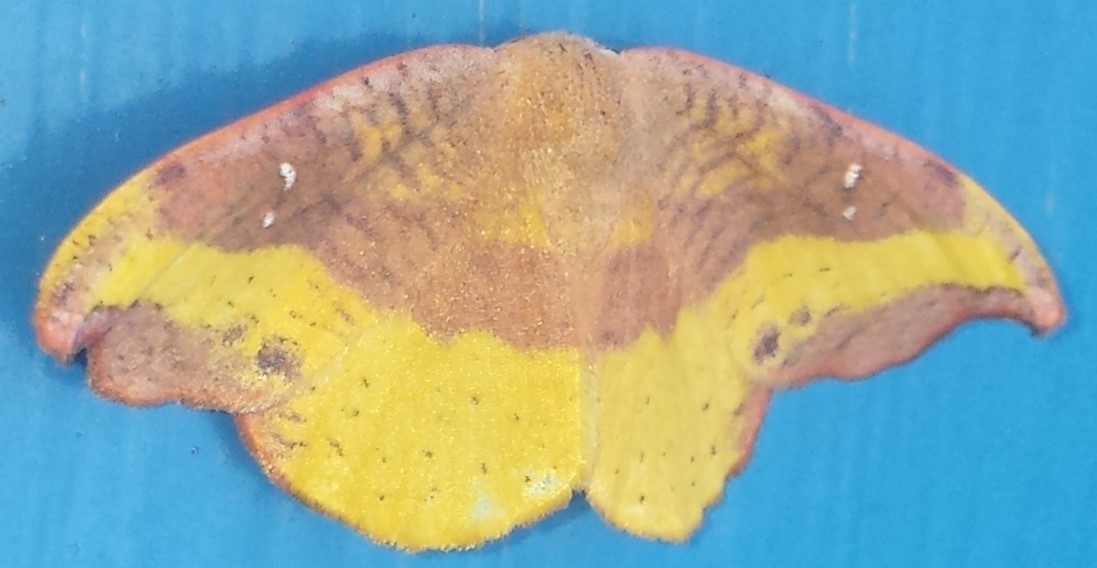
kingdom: Animalia
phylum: Arthropoda
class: Insecta
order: Lepidoptera
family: Drepanidae
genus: Oreta
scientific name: Oreta rosea
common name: Rose hooktip
